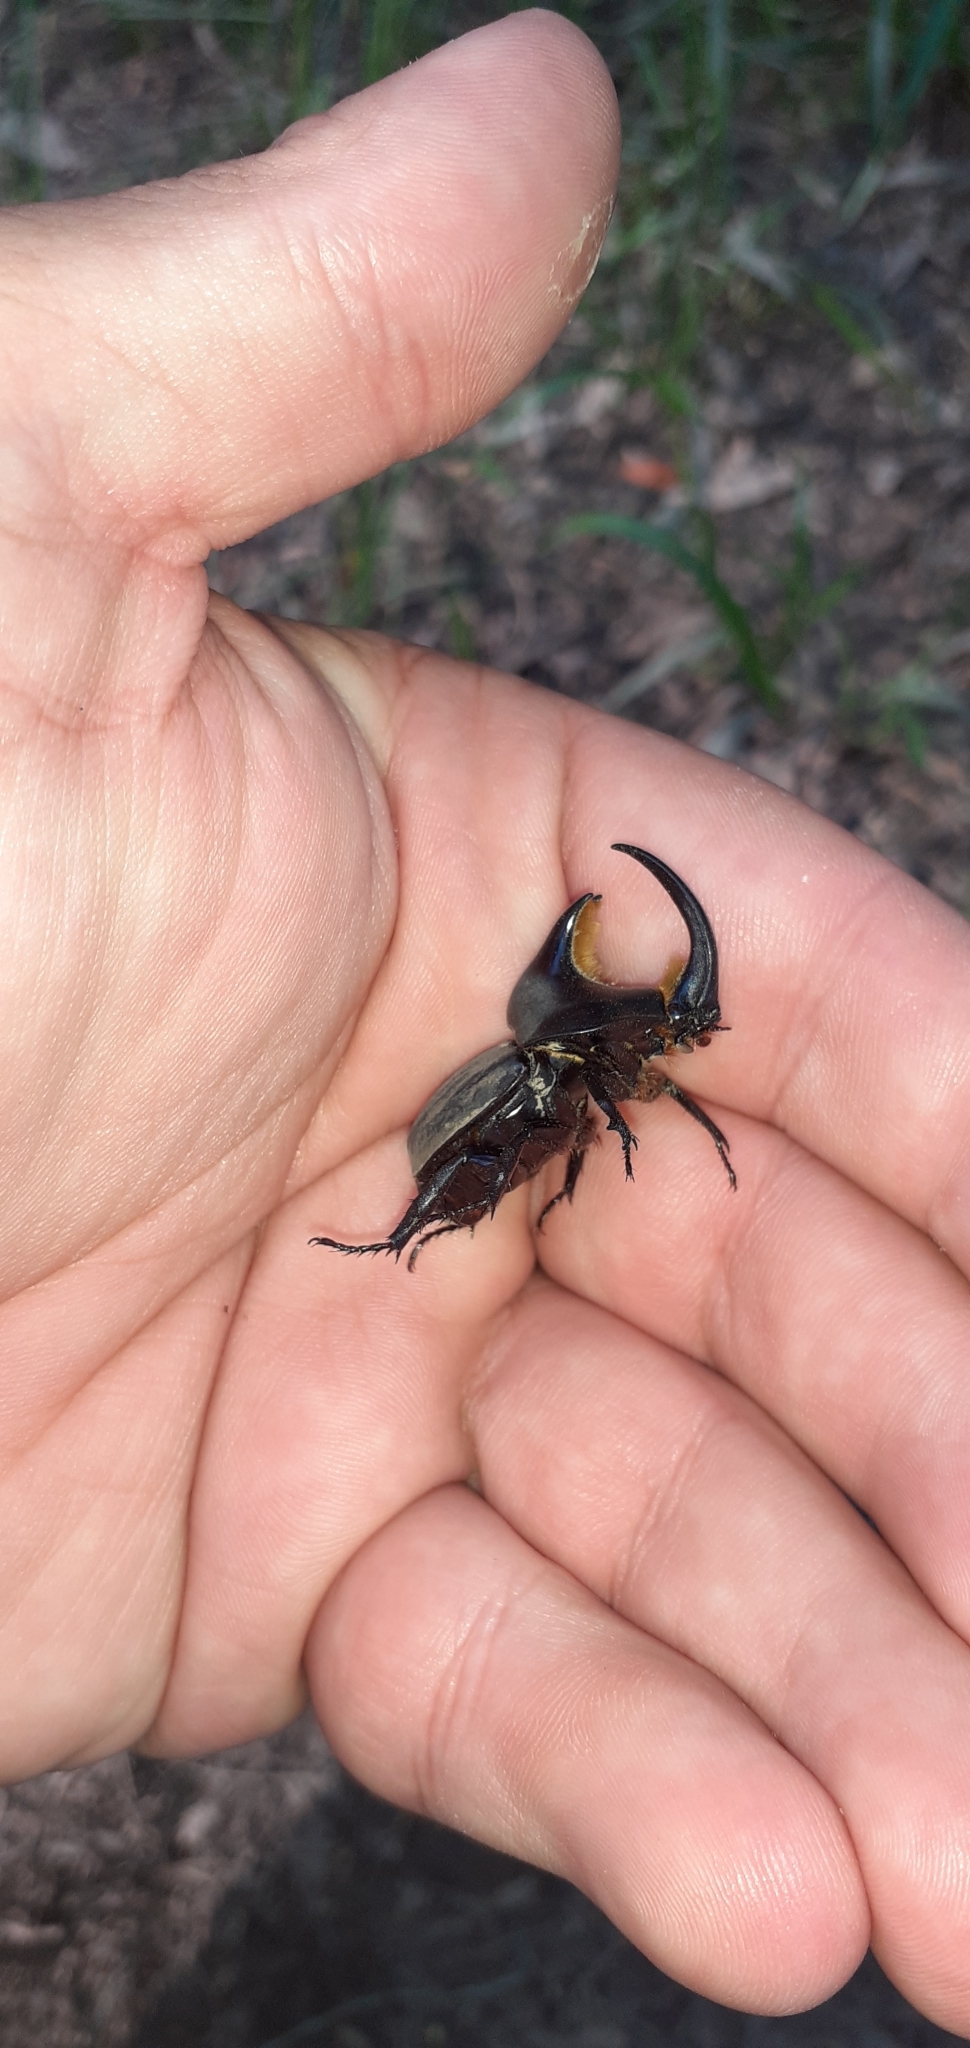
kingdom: Animalia
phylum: Arthropoda
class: Insecta
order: Coleoptera
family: Scarabaeidae
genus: Diloboderus
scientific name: Diloboderus abderus
